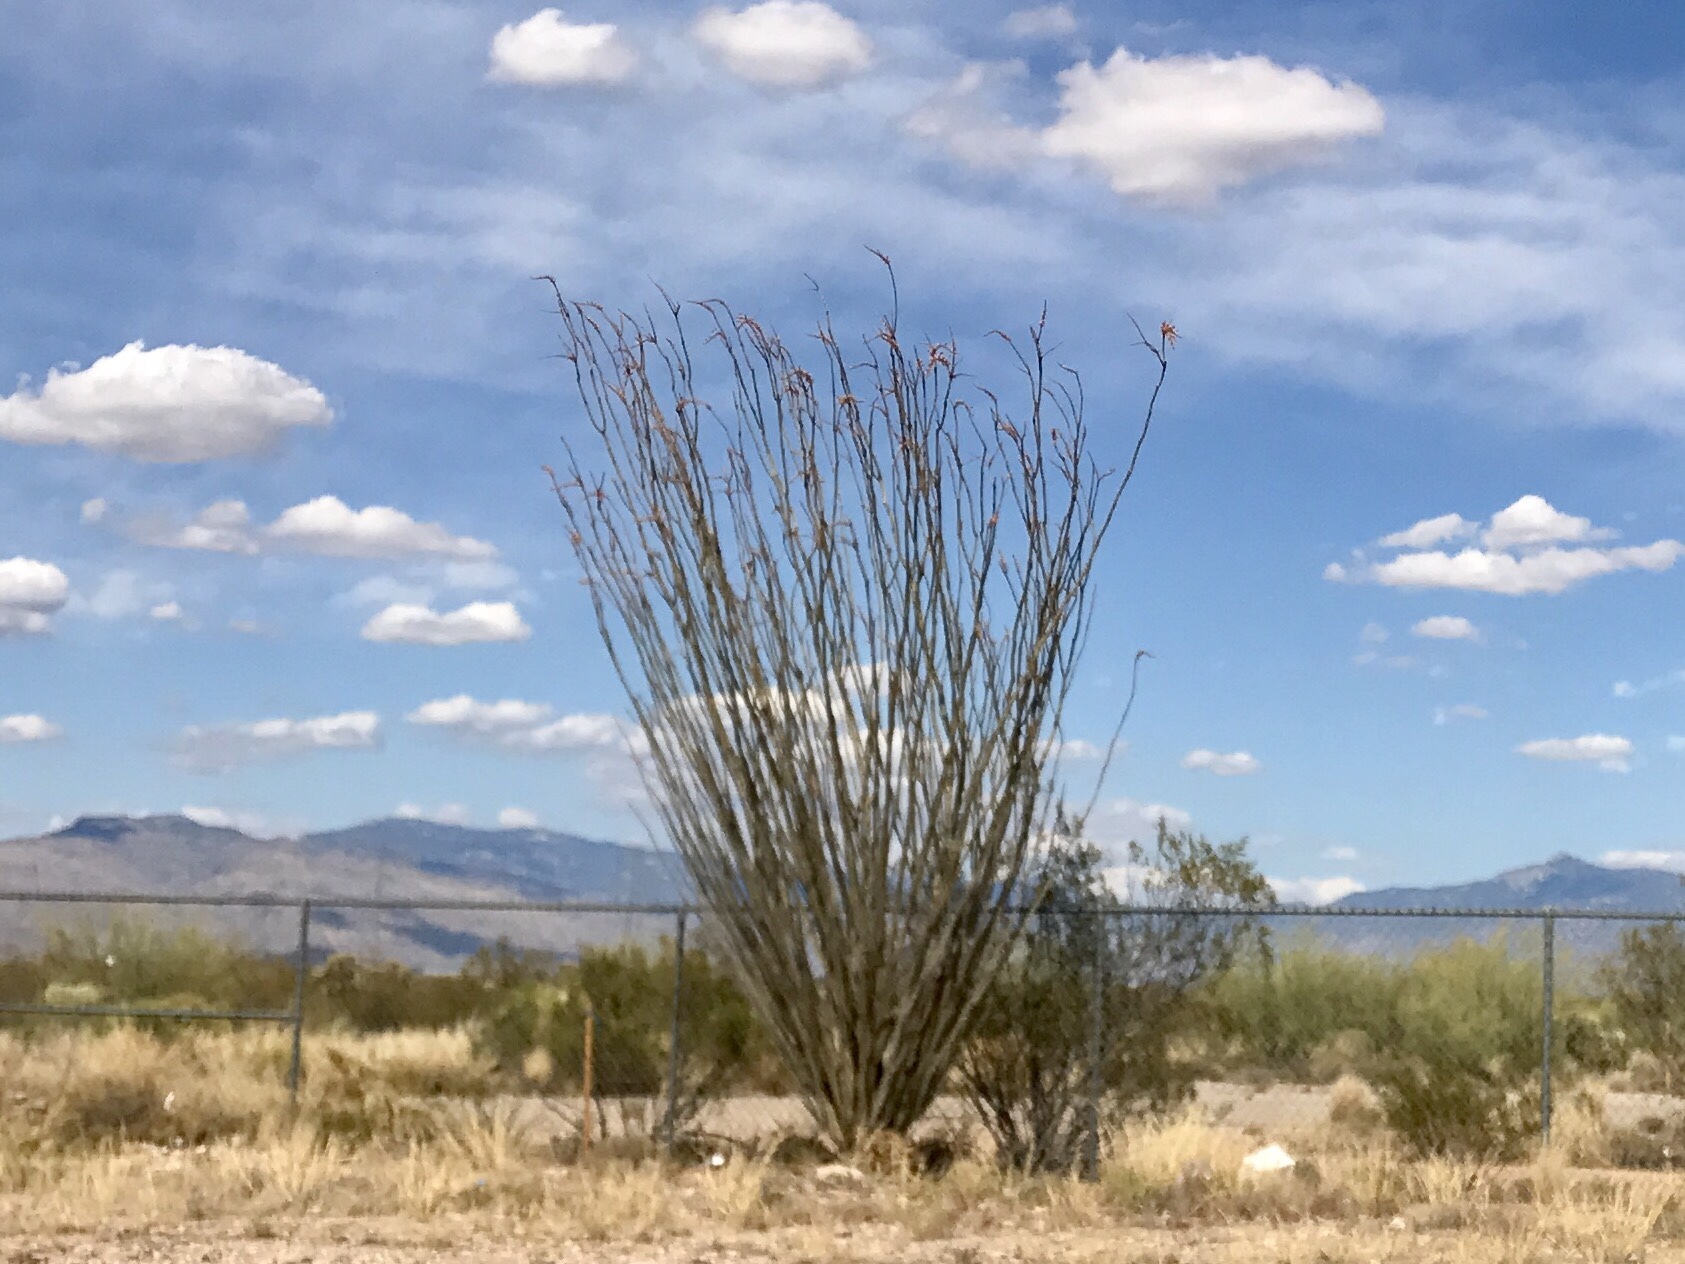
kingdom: Plantae
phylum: Tracheophyta
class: Magnoliopsida
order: Ericales
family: Fouquieriaceae
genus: Fouquieria
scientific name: Fouquieria splendens
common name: Vine-cactus
